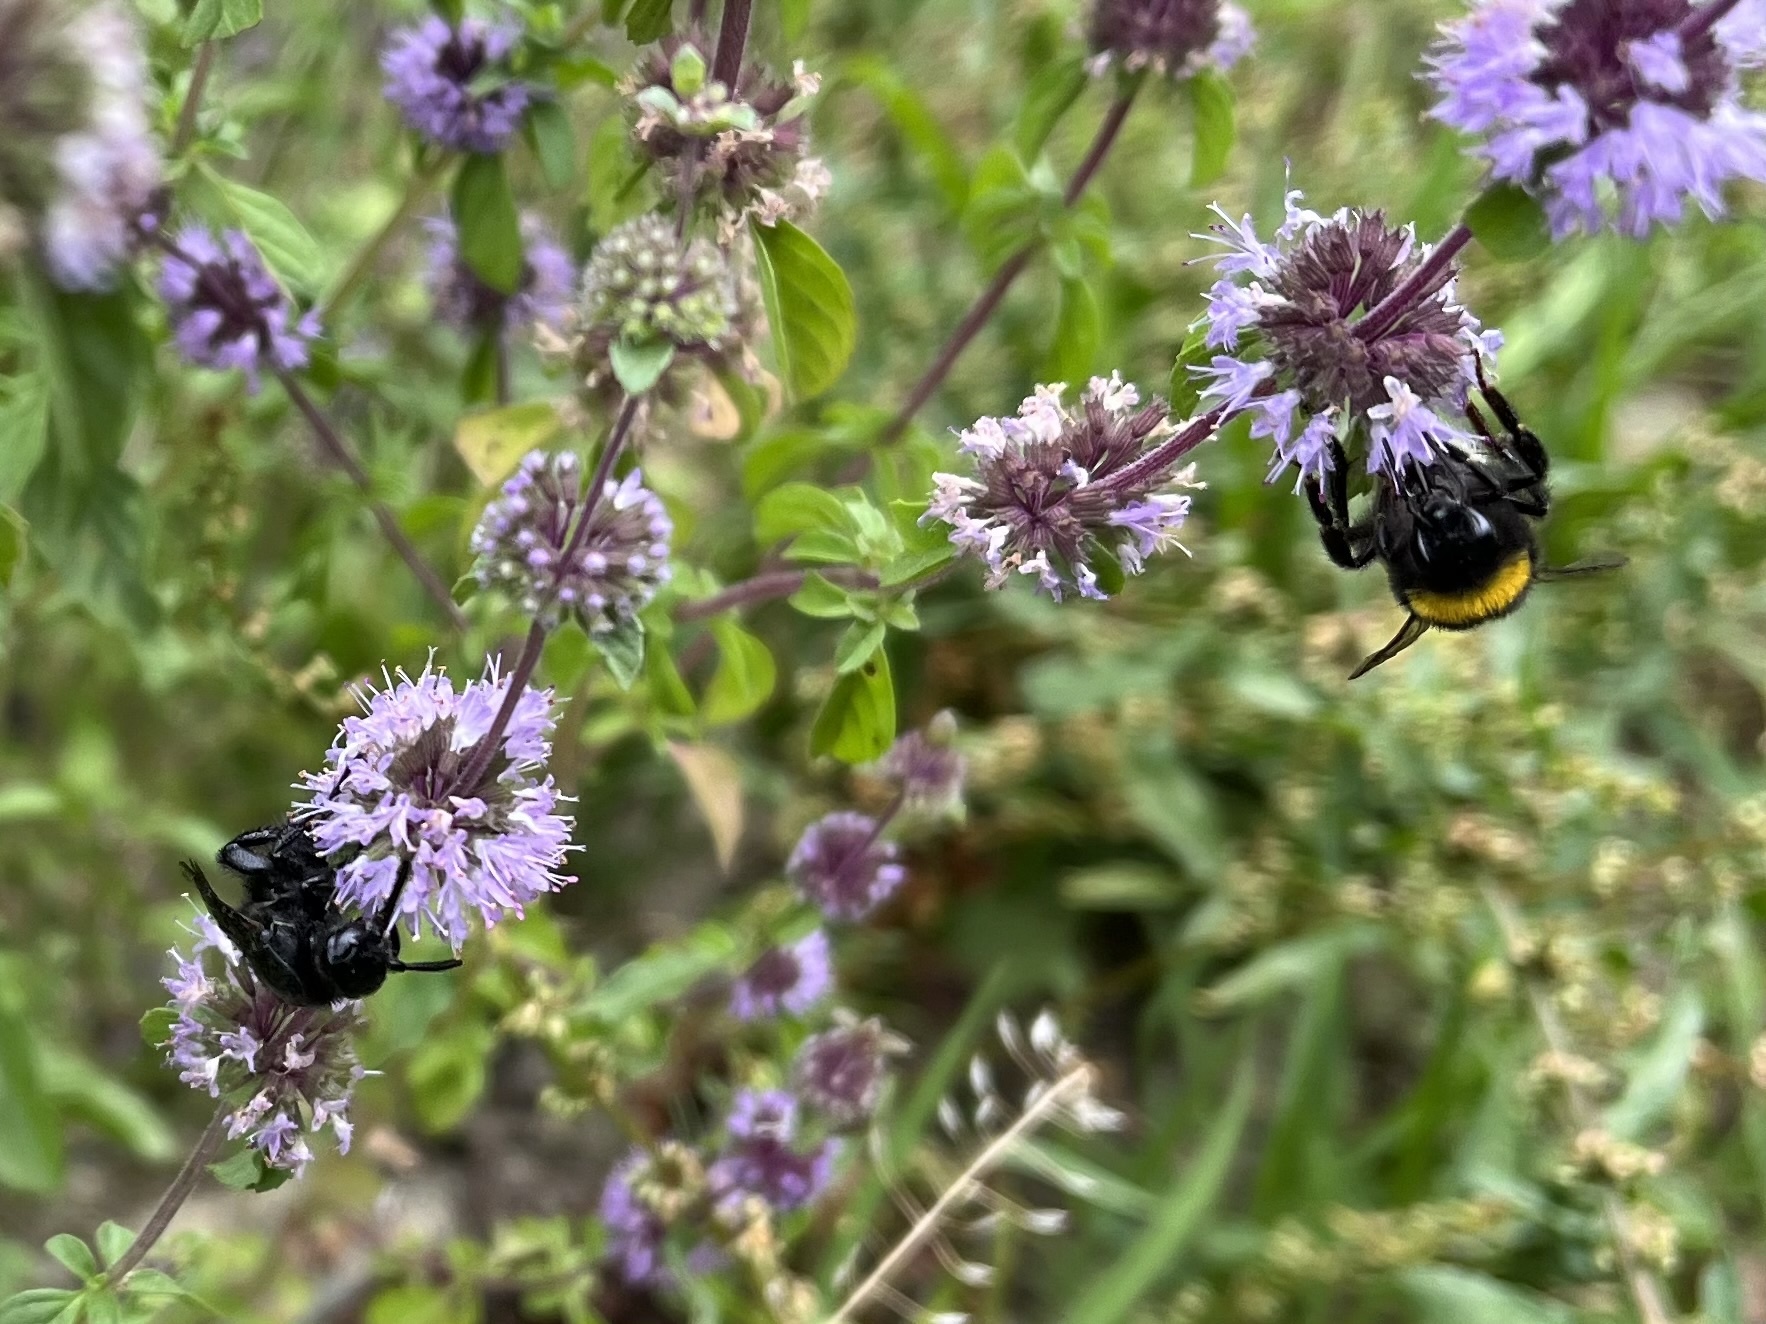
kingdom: Animalia
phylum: Arthropoda
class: Insecta
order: Hymenoptera
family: Scoliidae
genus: Scolia
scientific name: Scolia hirta
